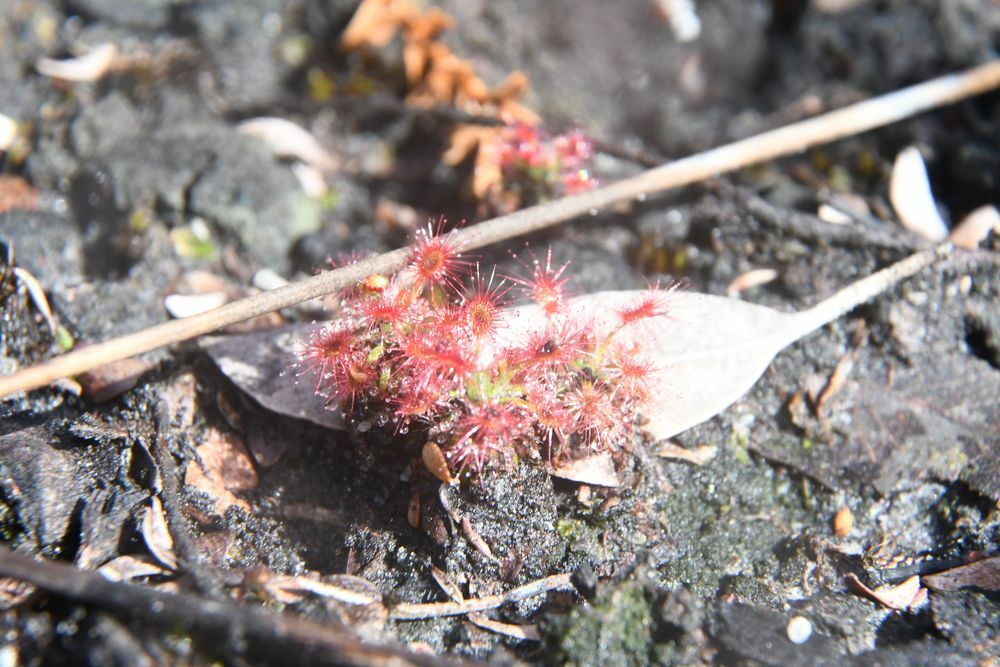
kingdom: Plantae
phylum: Tracheophyta
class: Magnoliopsida
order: Caryophyllales
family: Droseraceae
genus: Drosera
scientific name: Drosera paleacea
